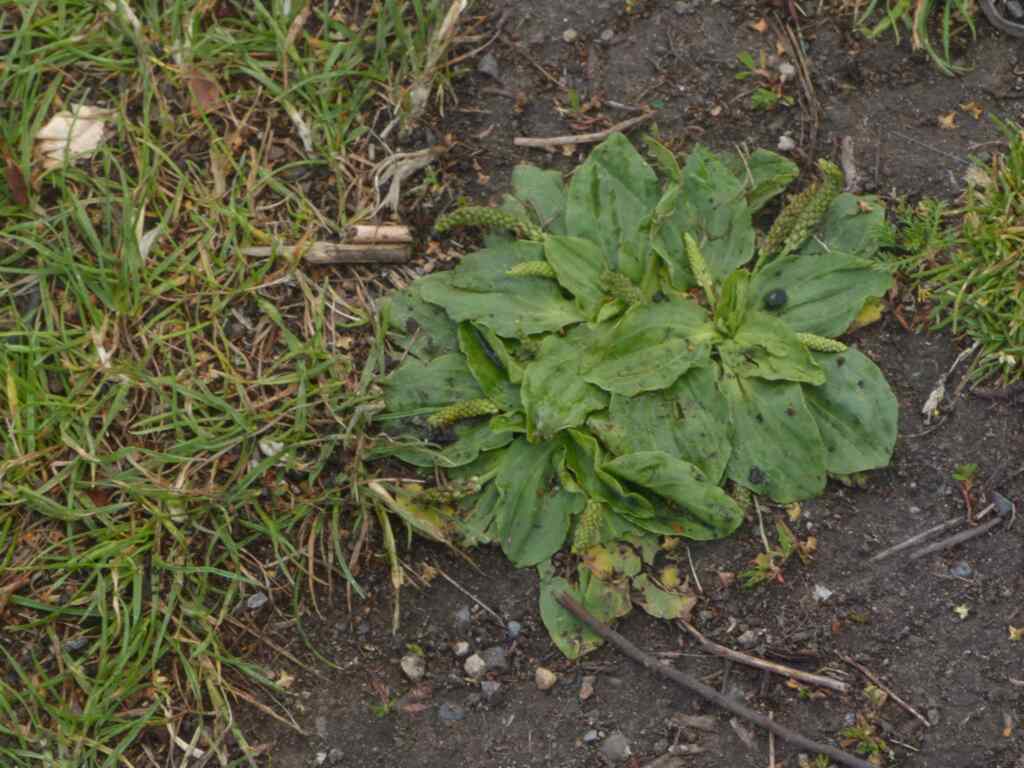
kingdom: Plantae
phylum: Tracheophyta
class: Magnoliopsida
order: Lamiales
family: Plantaginaceae
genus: Plantago
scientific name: Plantago major
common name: Common plantain
